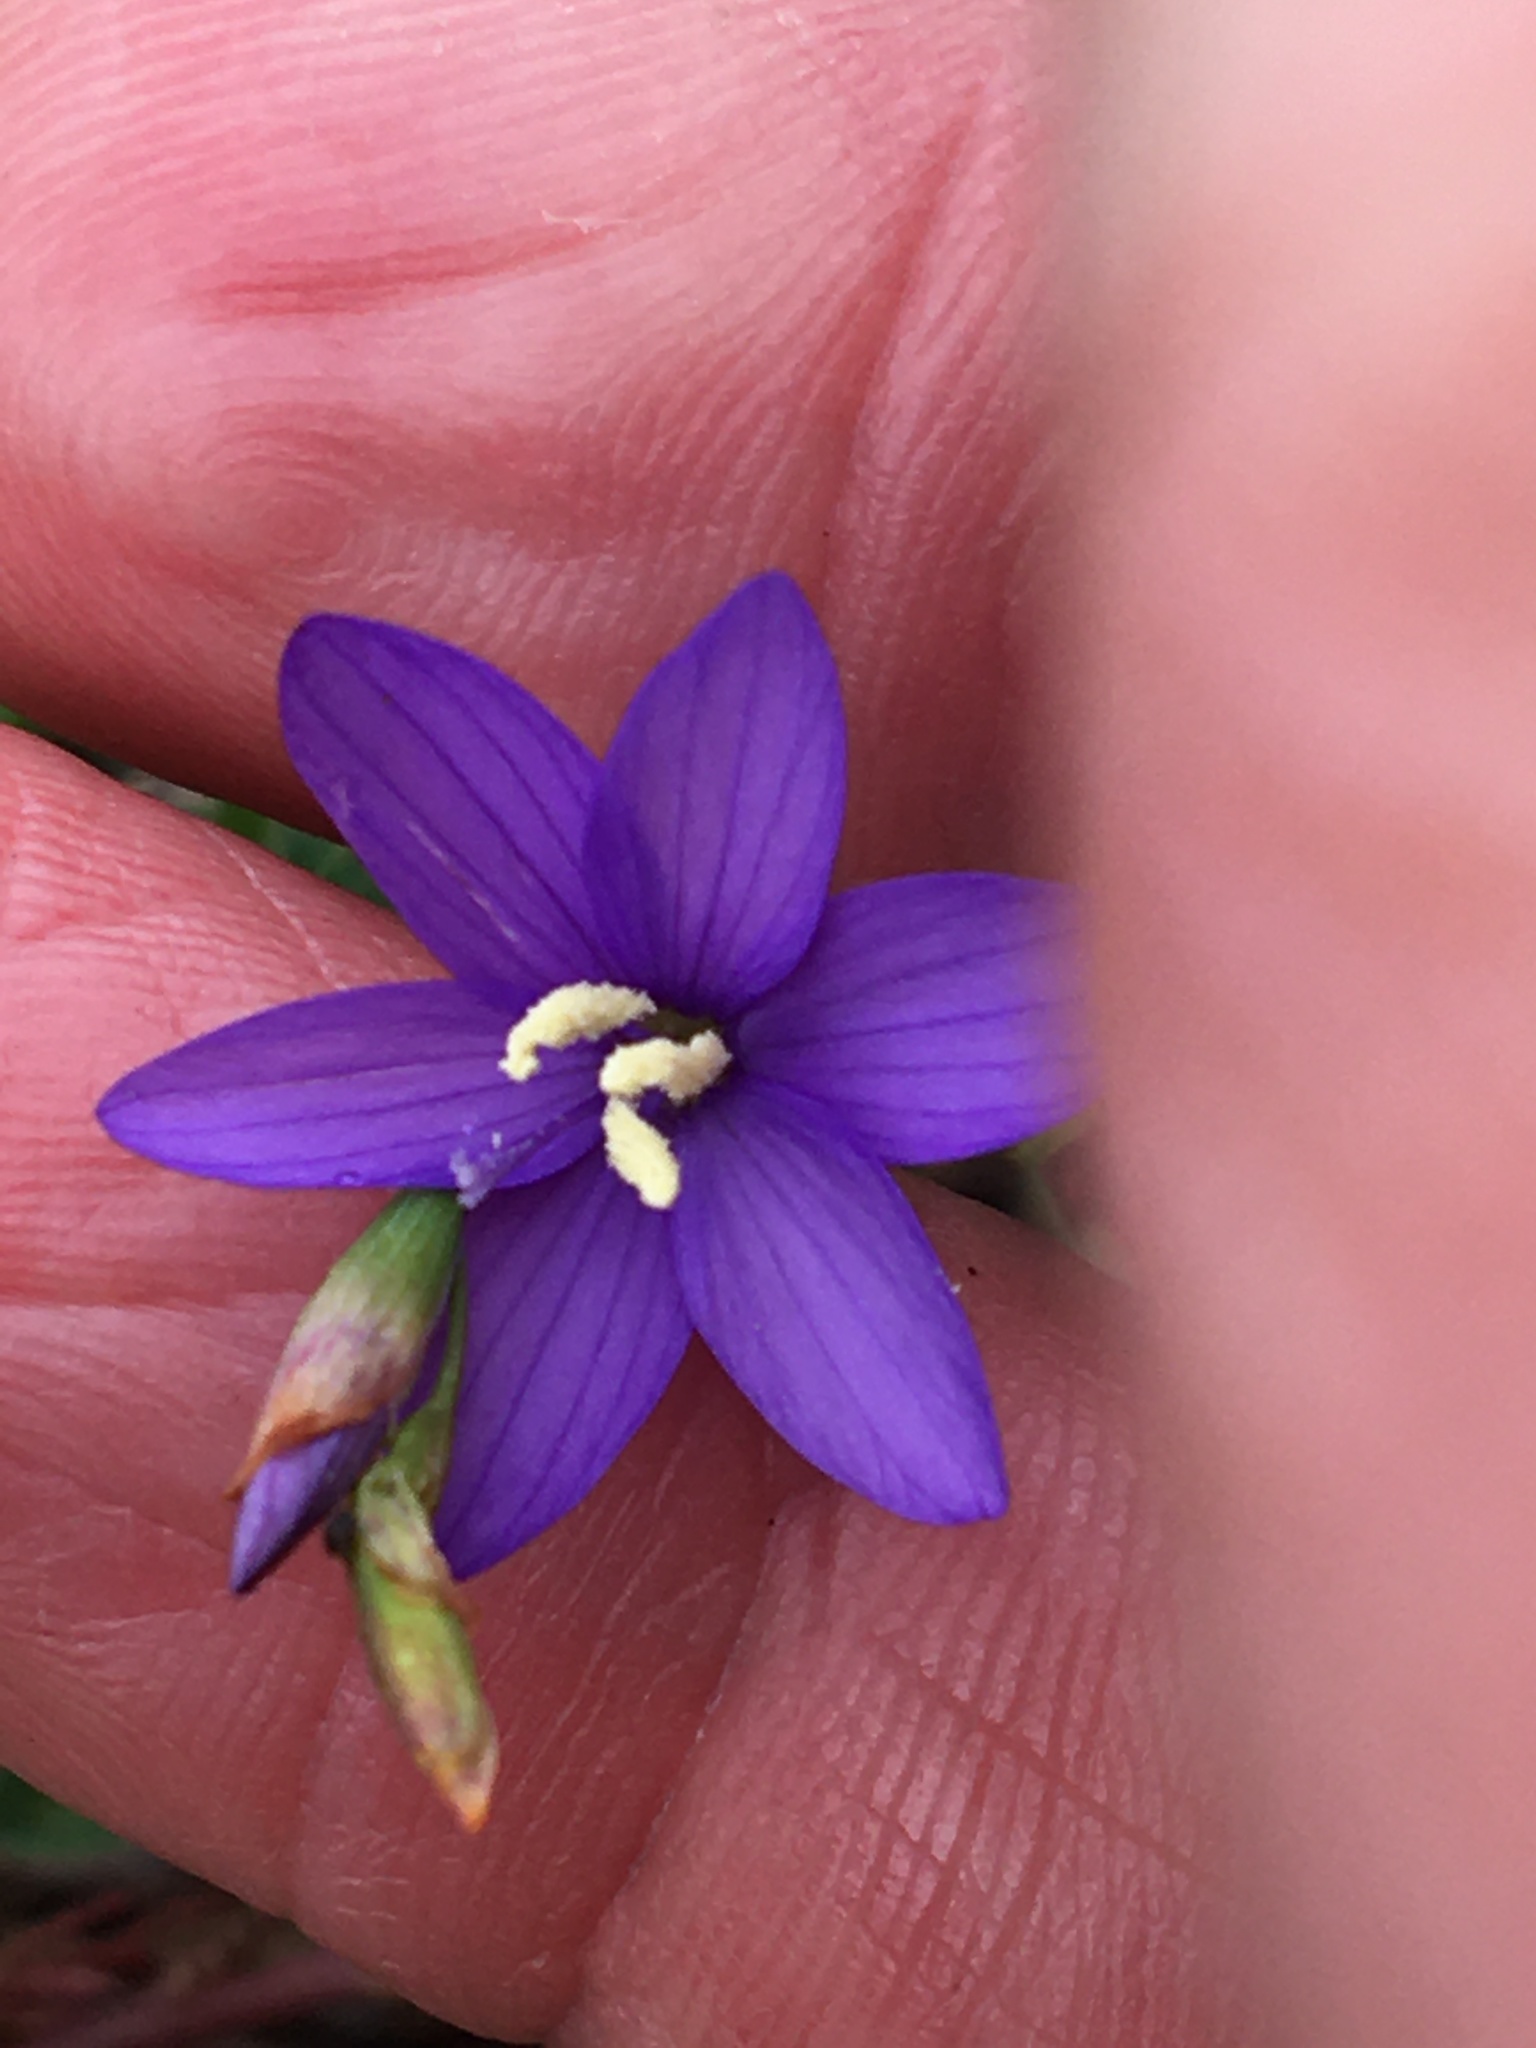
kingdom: Plantae
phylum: Tracheophyta
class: Liliopsida
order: Asparagales
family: Iridaceae
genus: Geissorhiza
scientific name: Geissorhiza aspera
